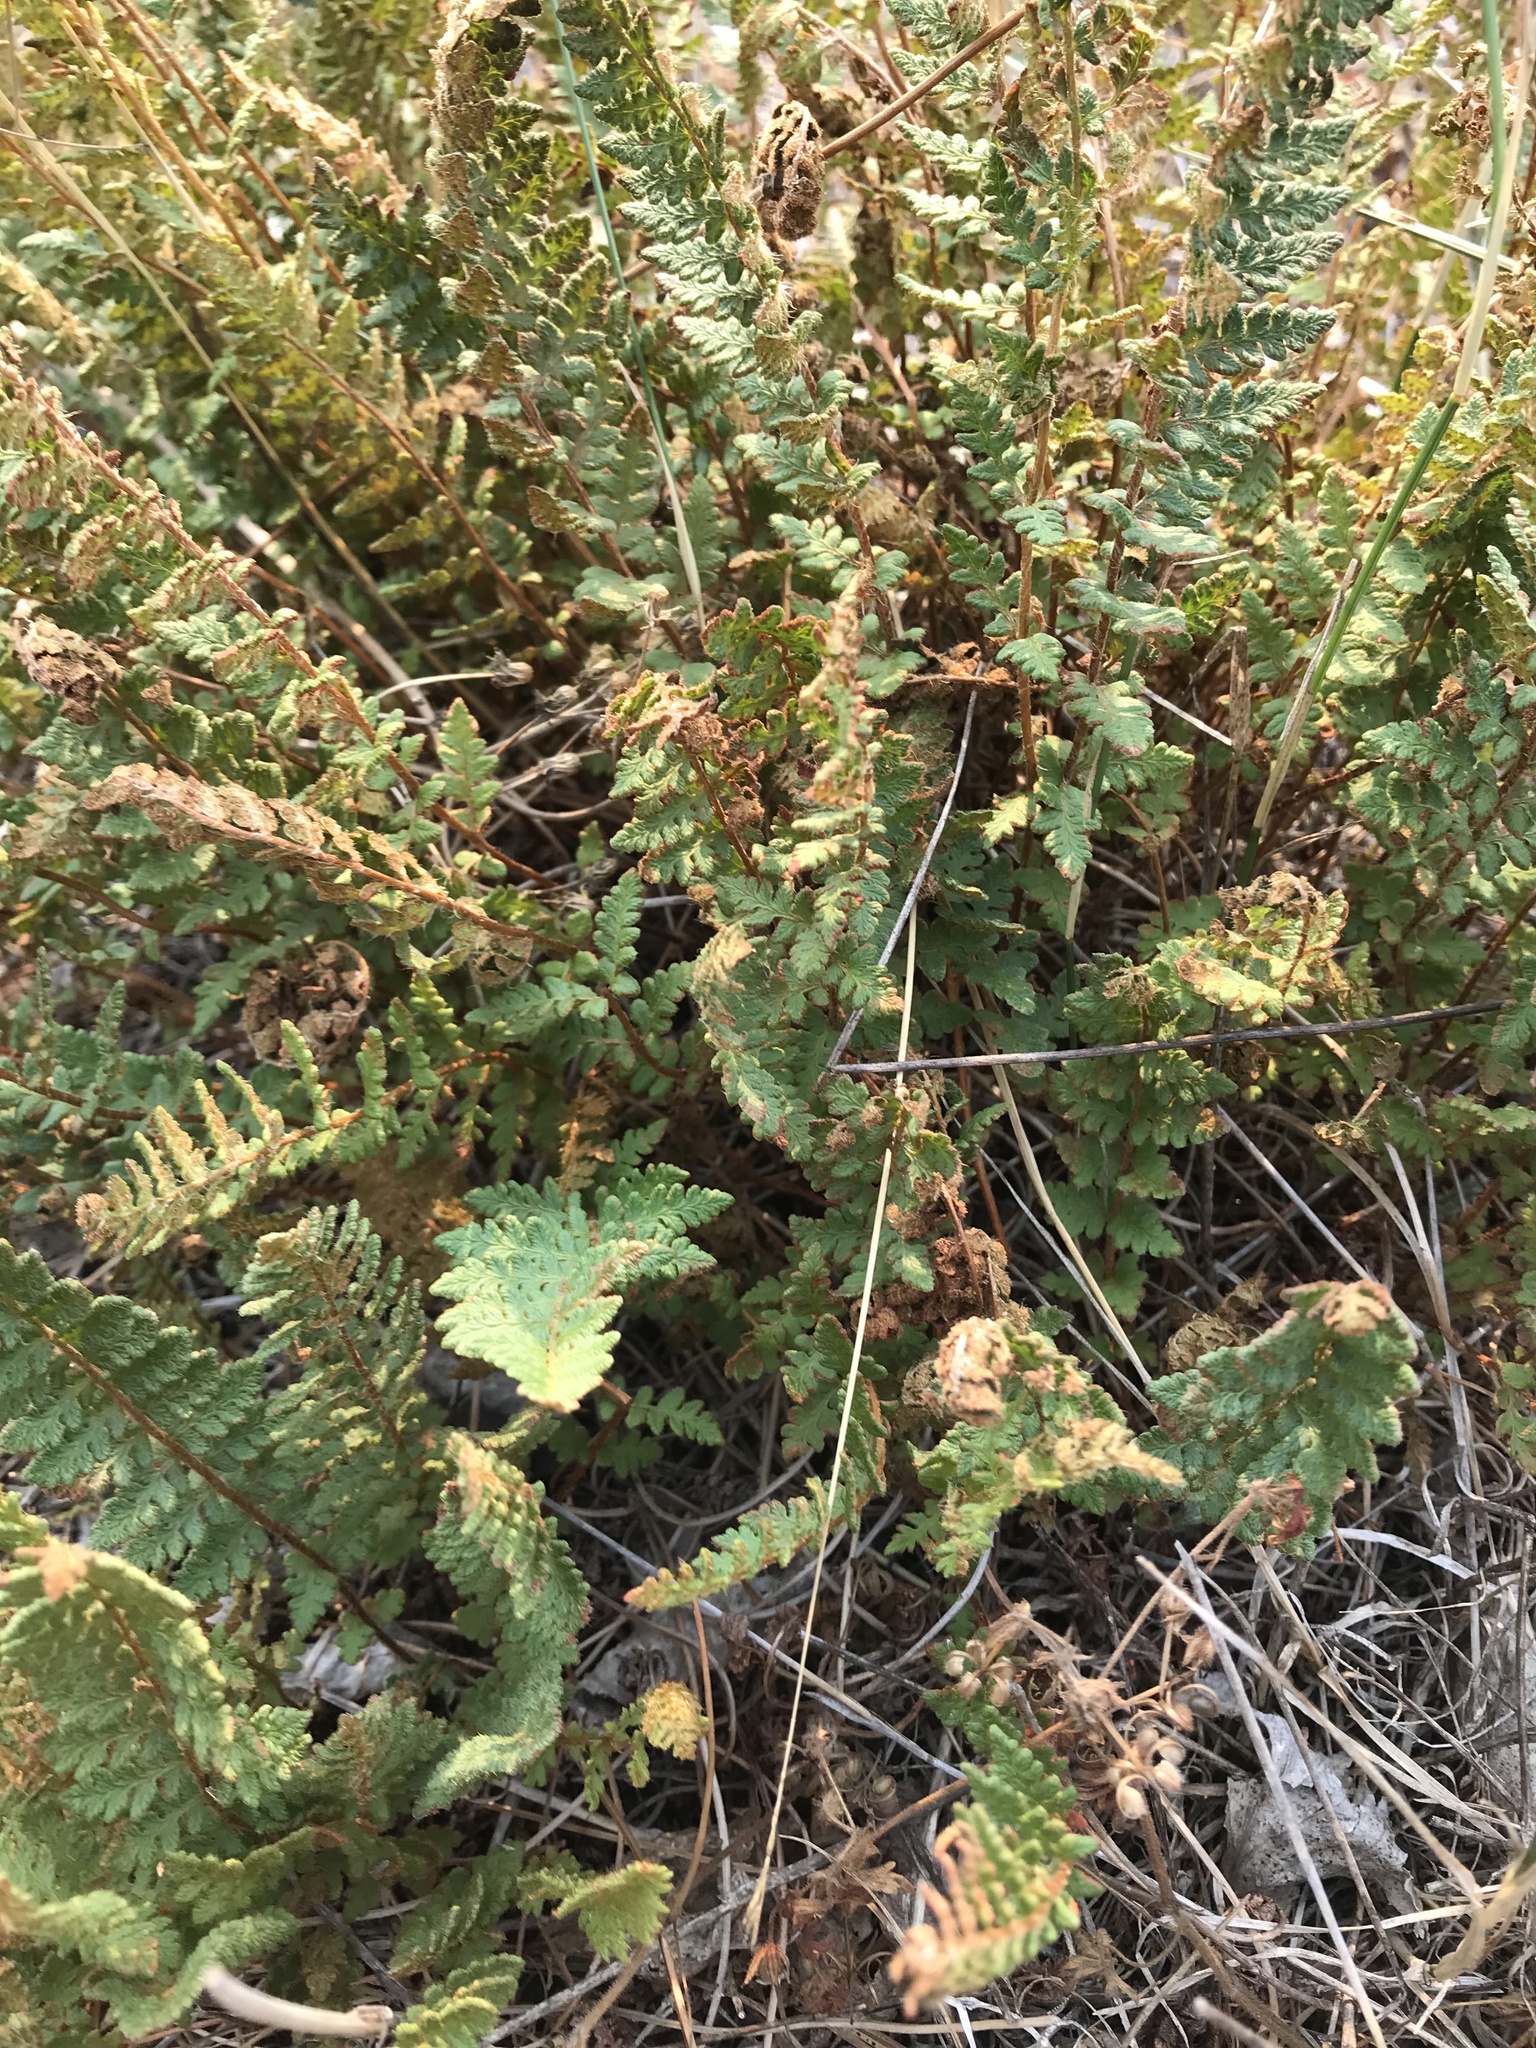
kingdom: Plantae
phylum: Tracheophyta
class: Polypodiopsida
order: Polypodiales
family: Woodsiaceae
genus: Woodsia
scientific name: Woodsia ilvensis
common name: Fragrant woodsia
